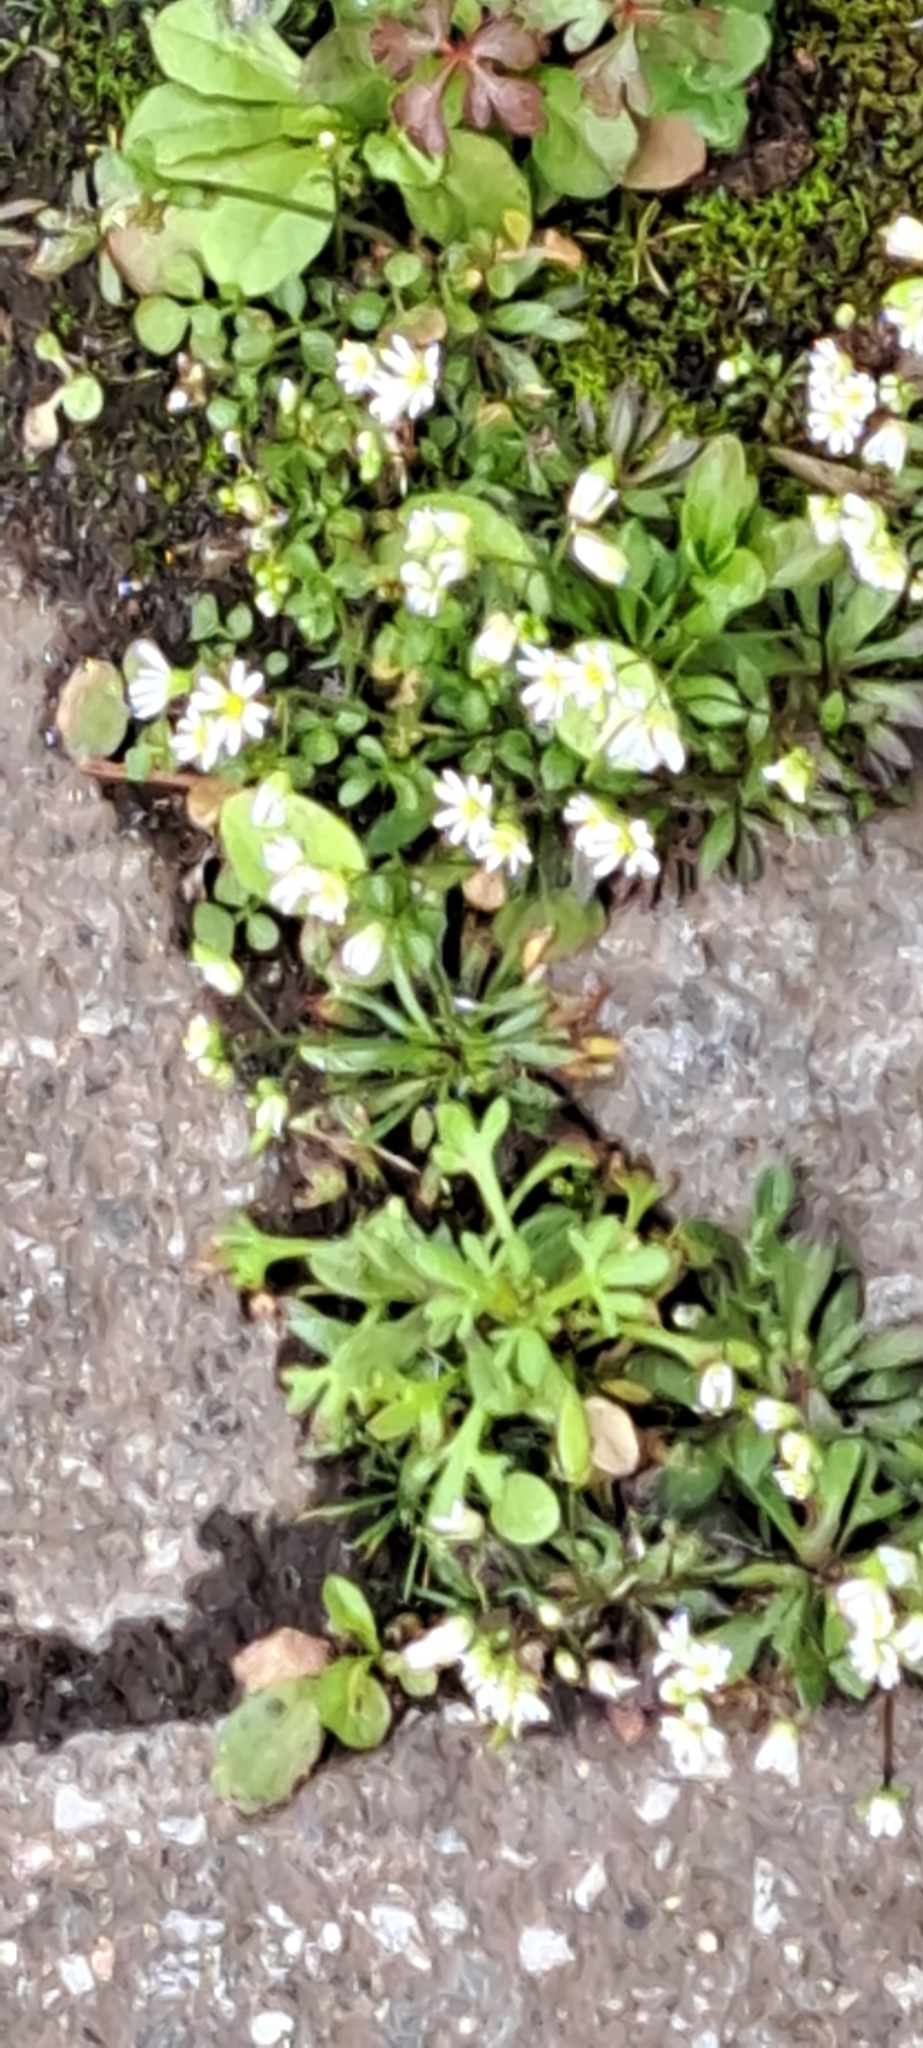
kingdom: Plantae
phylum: Tracheophyta
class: Magnoliopsida
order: Brassicales
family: Brassicaceae
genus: Draba
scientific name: Draba verna
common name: Spring draba
